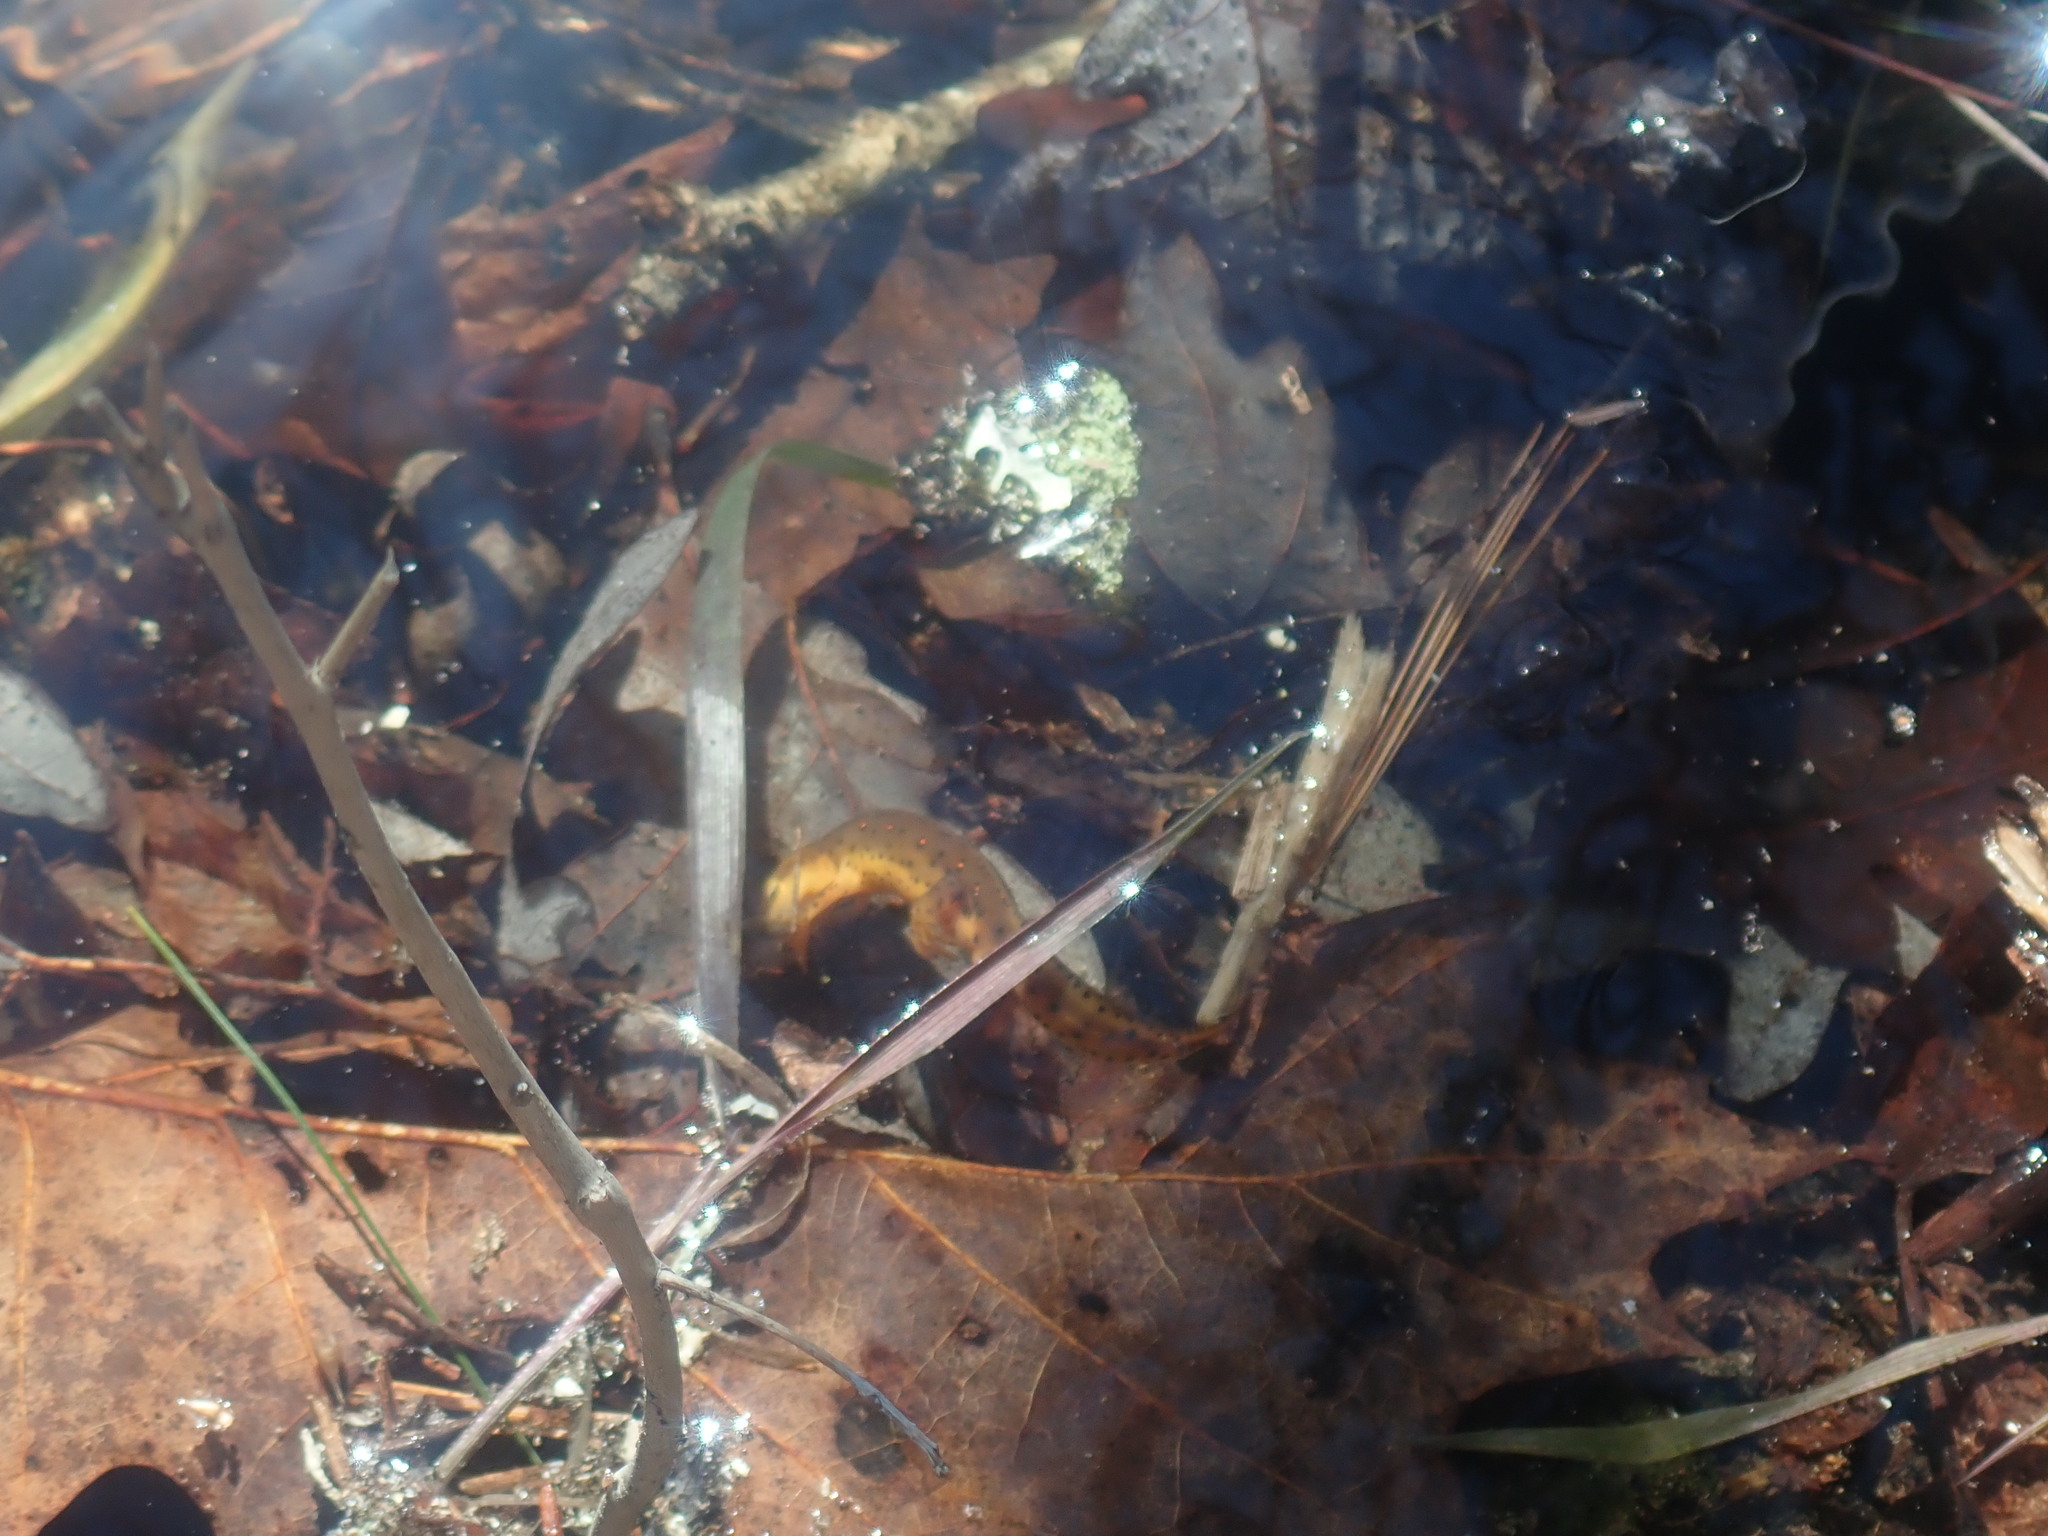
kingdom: Animalia
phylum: Chordata
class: Amphibia
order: Caudata
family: Salamandridae
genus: Notophthalmus
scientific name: Notophthalmus viridescens
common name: Eastern newt
